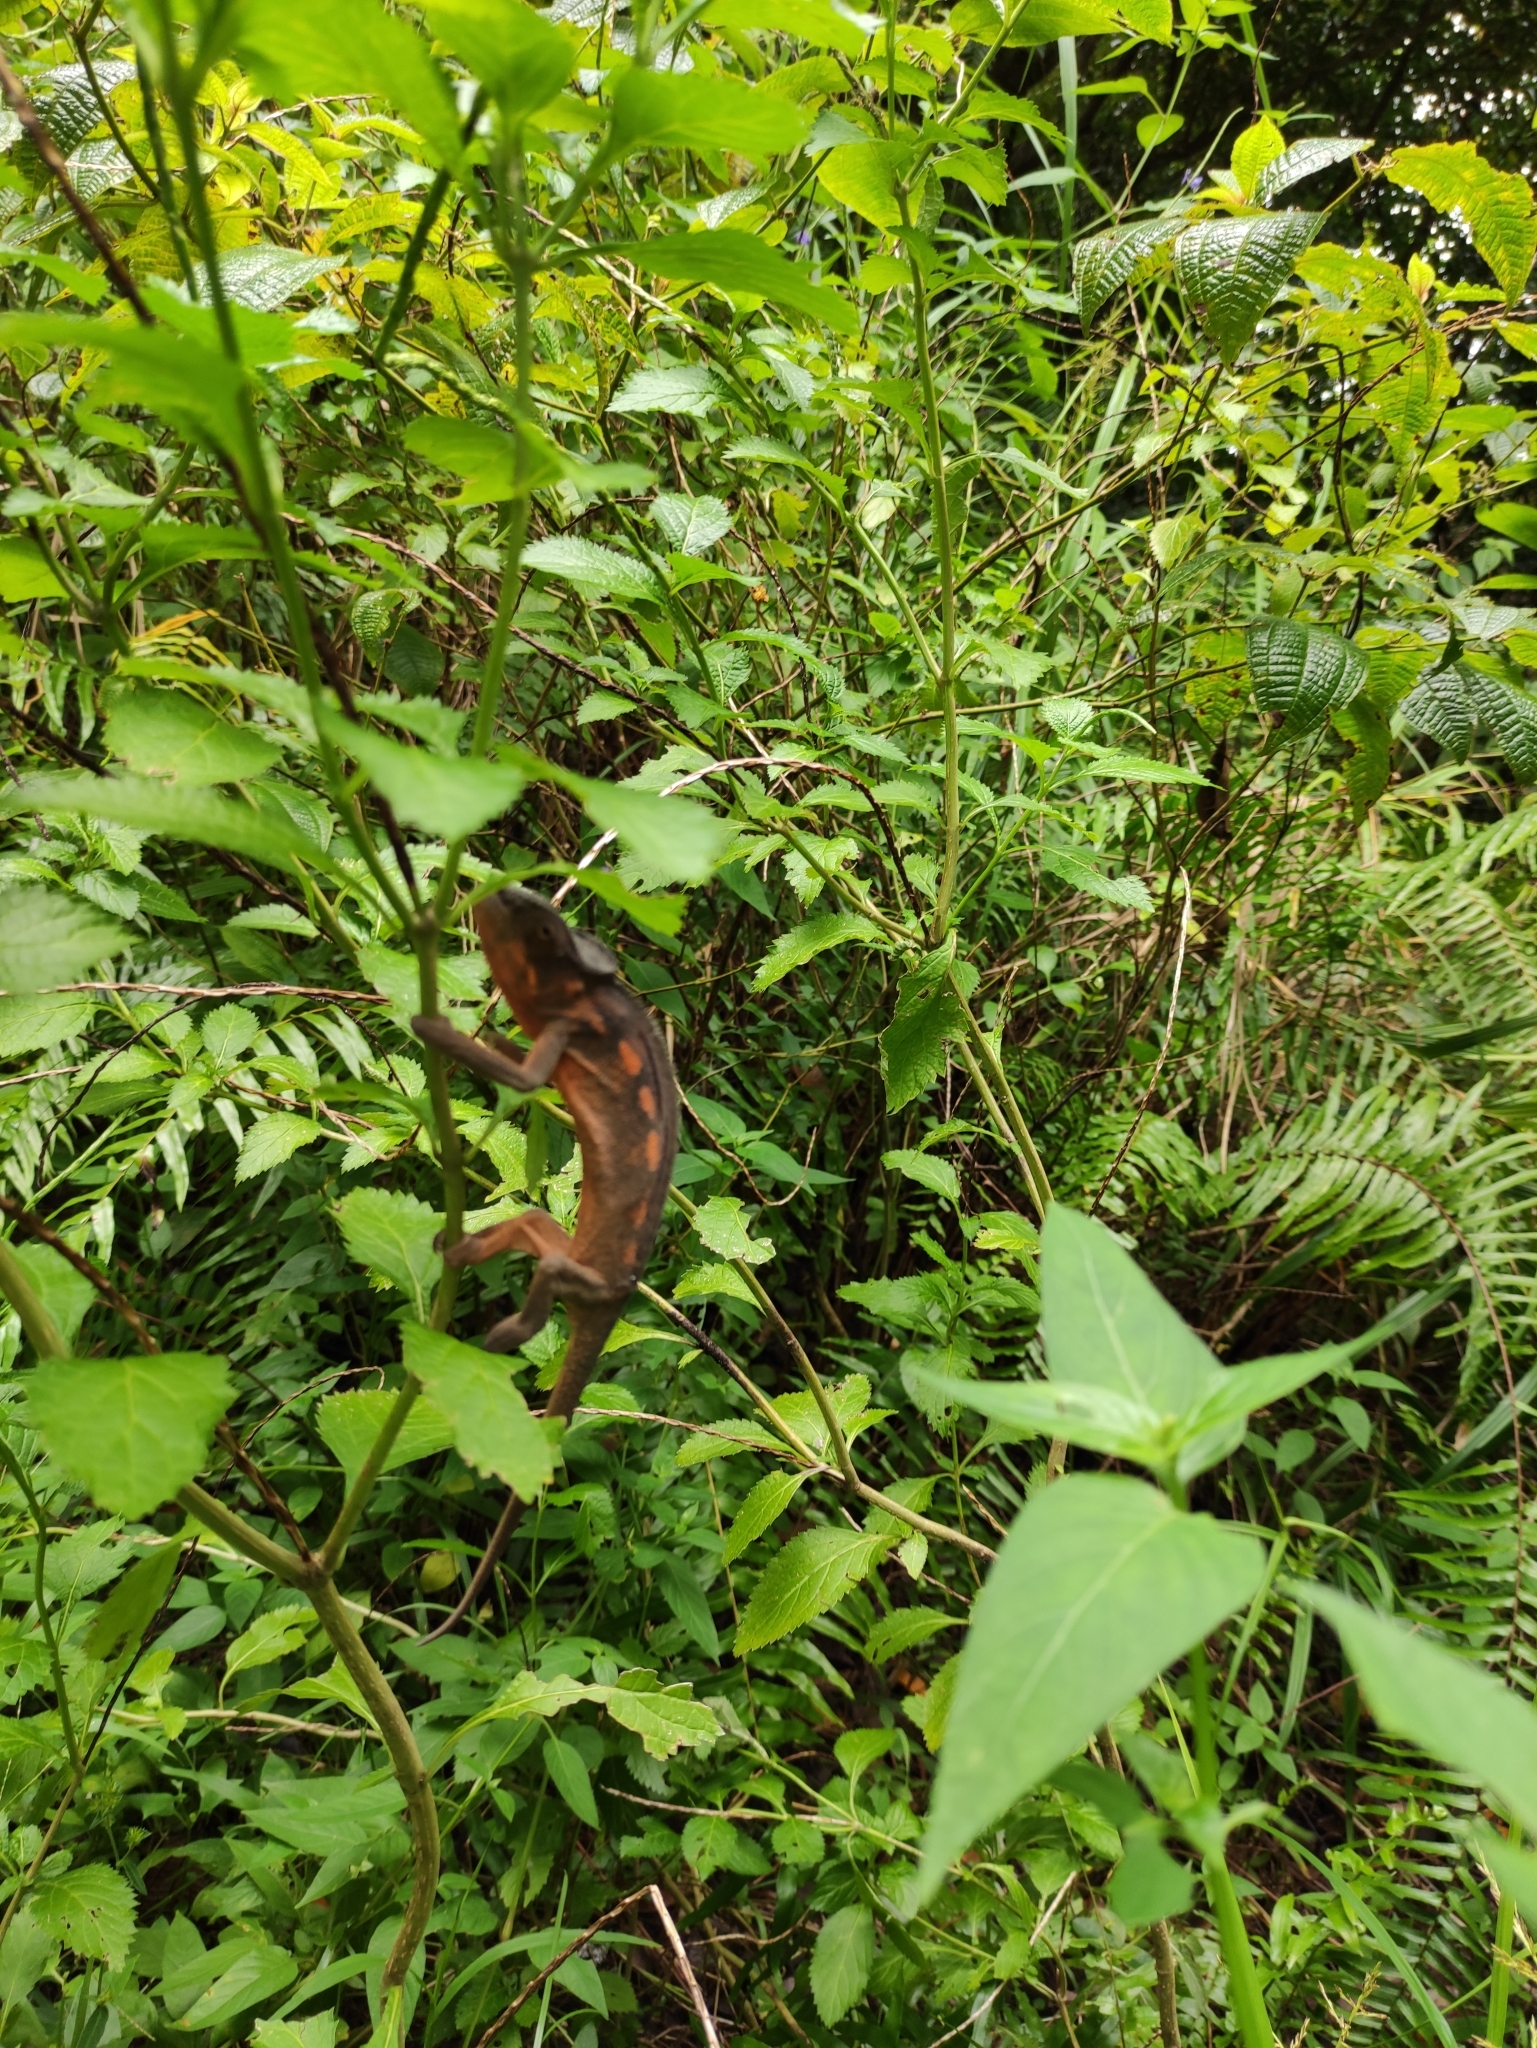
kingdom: Animalia
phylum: Chordata
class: Squamata
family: Chamaeleonidae
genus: Furcifer
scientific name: Furcifer pardalis
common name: Panther chameleon
